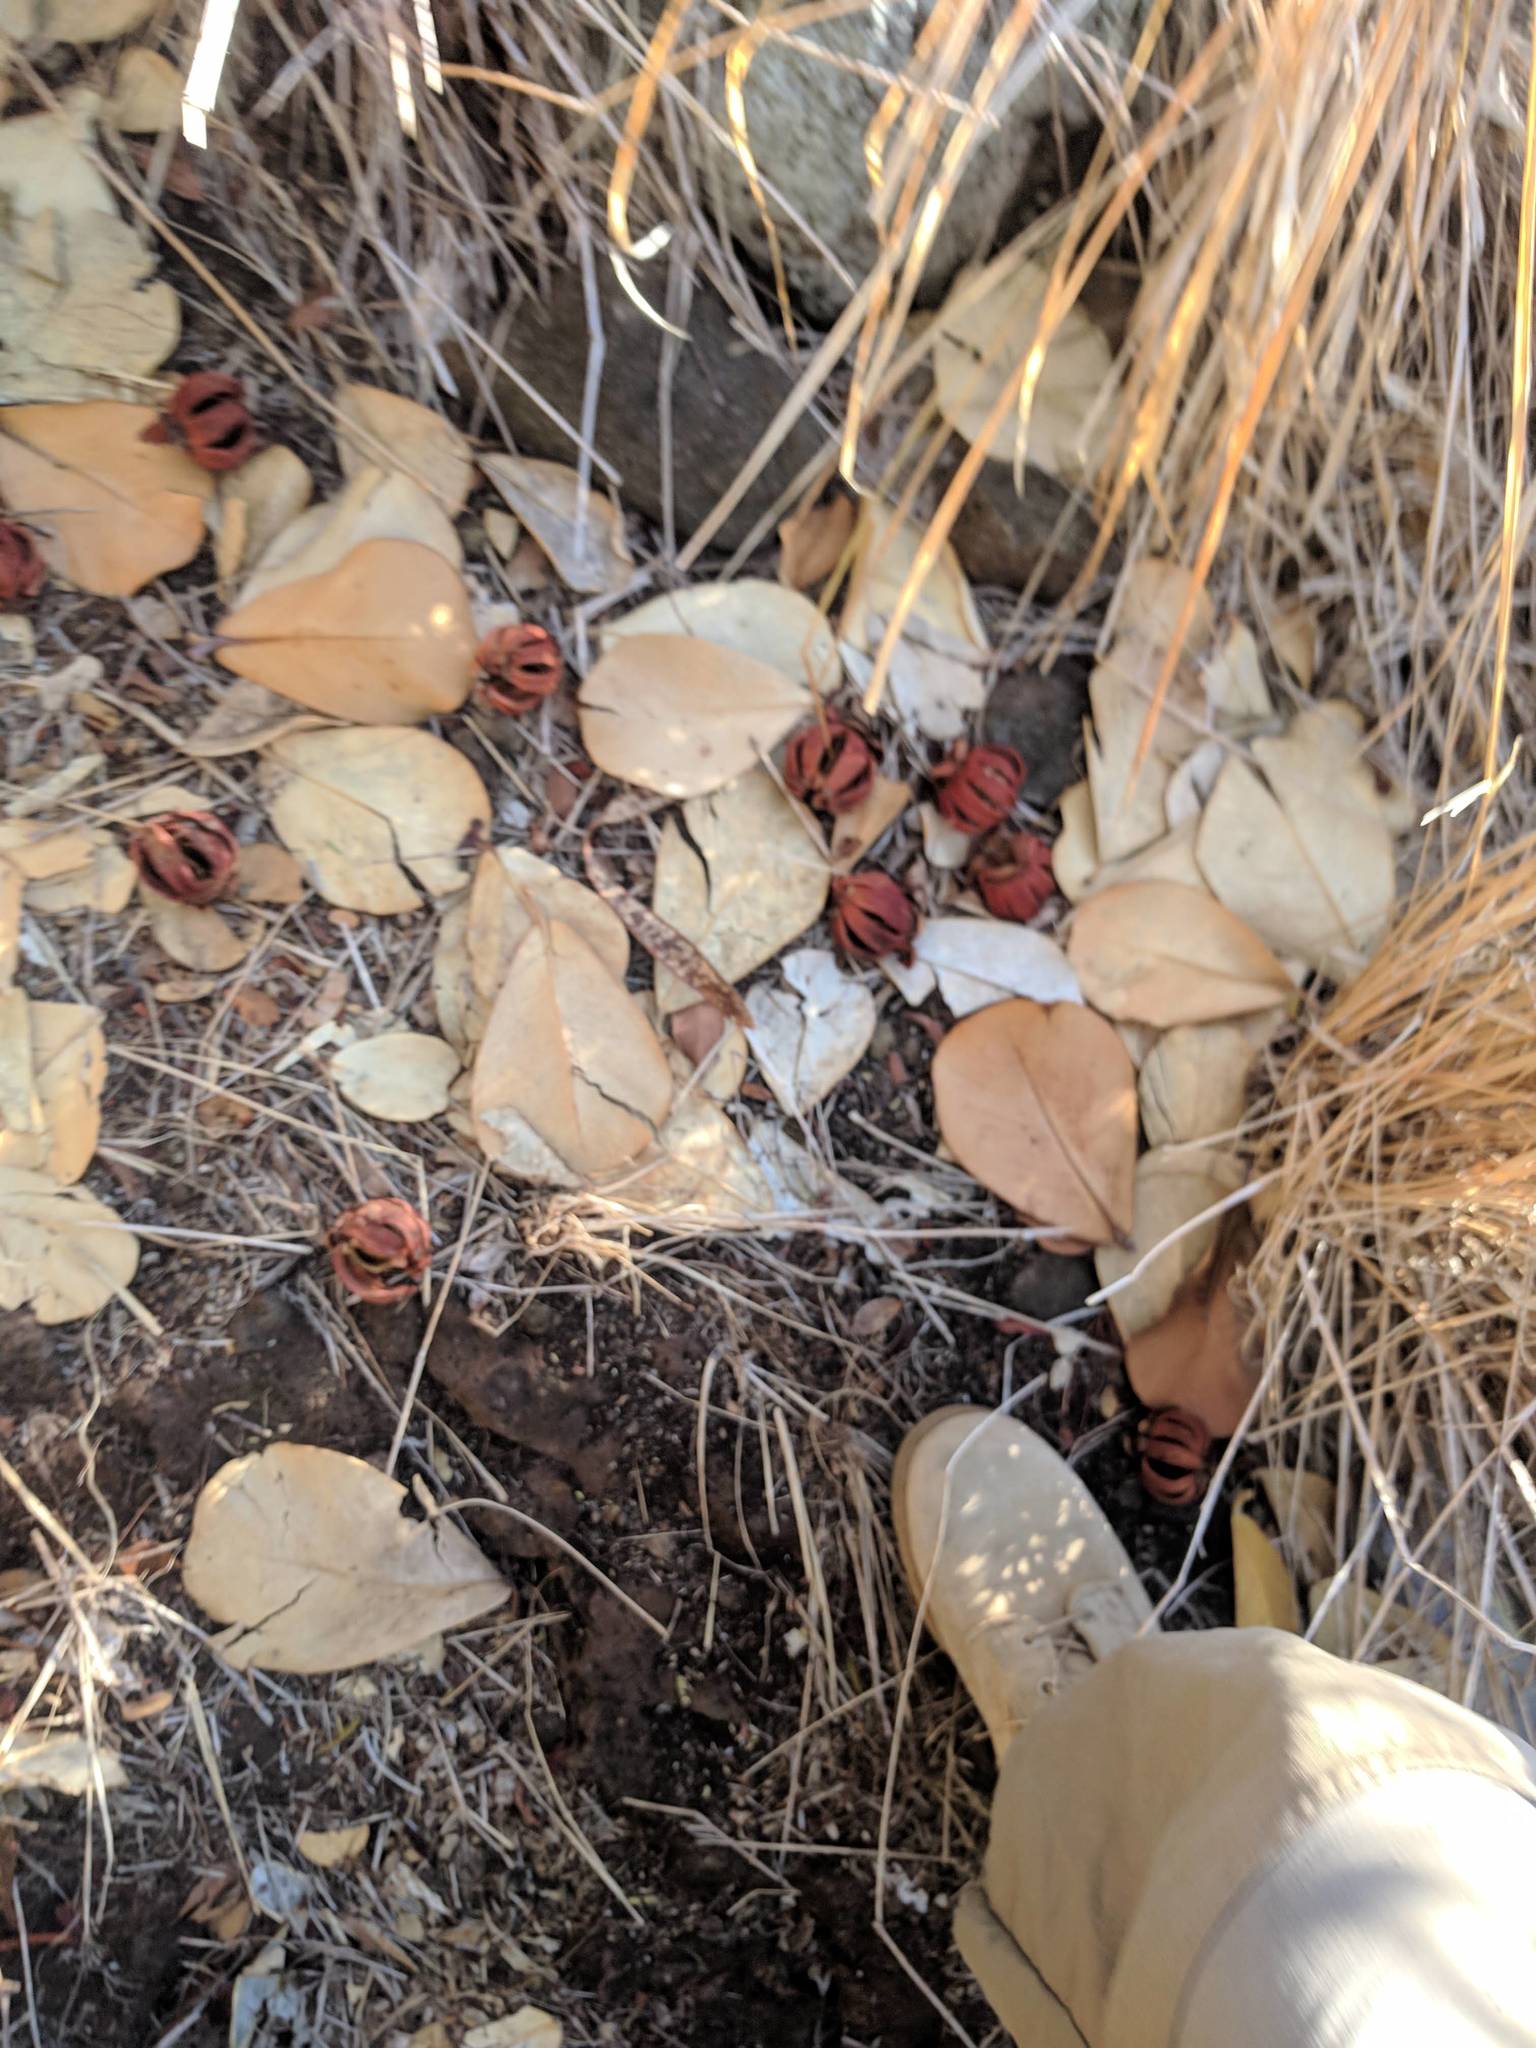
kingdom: Plantae
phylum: Tracheophyta
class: Magnoliopsida
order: Malpighiales
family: Clusiaceae
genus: Clusia
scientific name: Clusia rosea
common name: Scotch attorney
